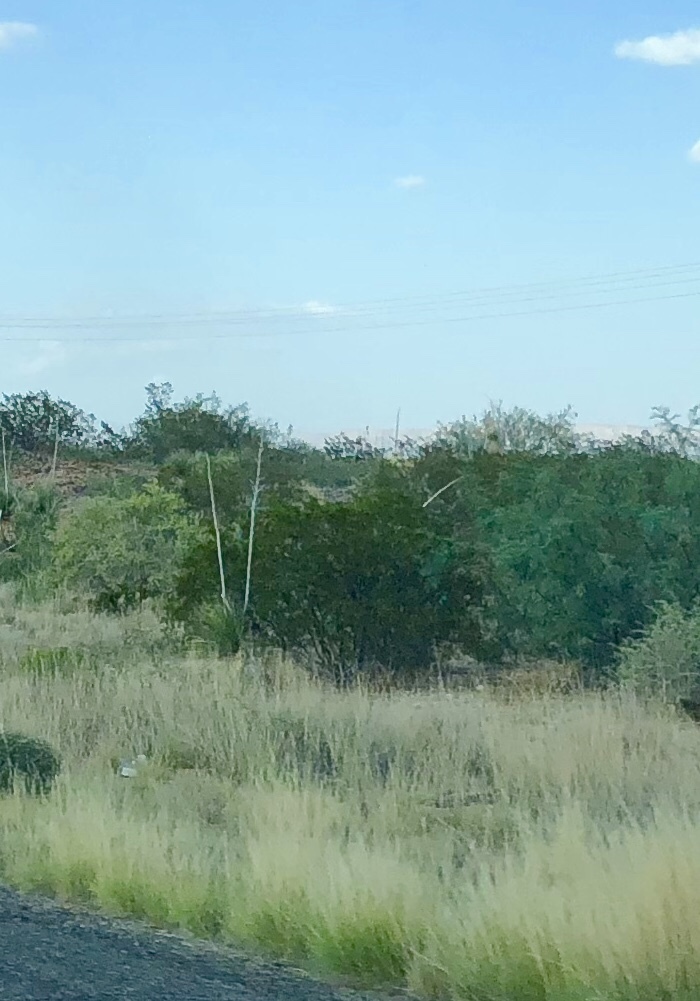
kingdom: Plantae
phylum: Tracheophyta
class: Magnoliopsida
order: Zygophyllales
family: Zygophyllaceae
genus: Larrea
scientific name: Larrea tridentata
